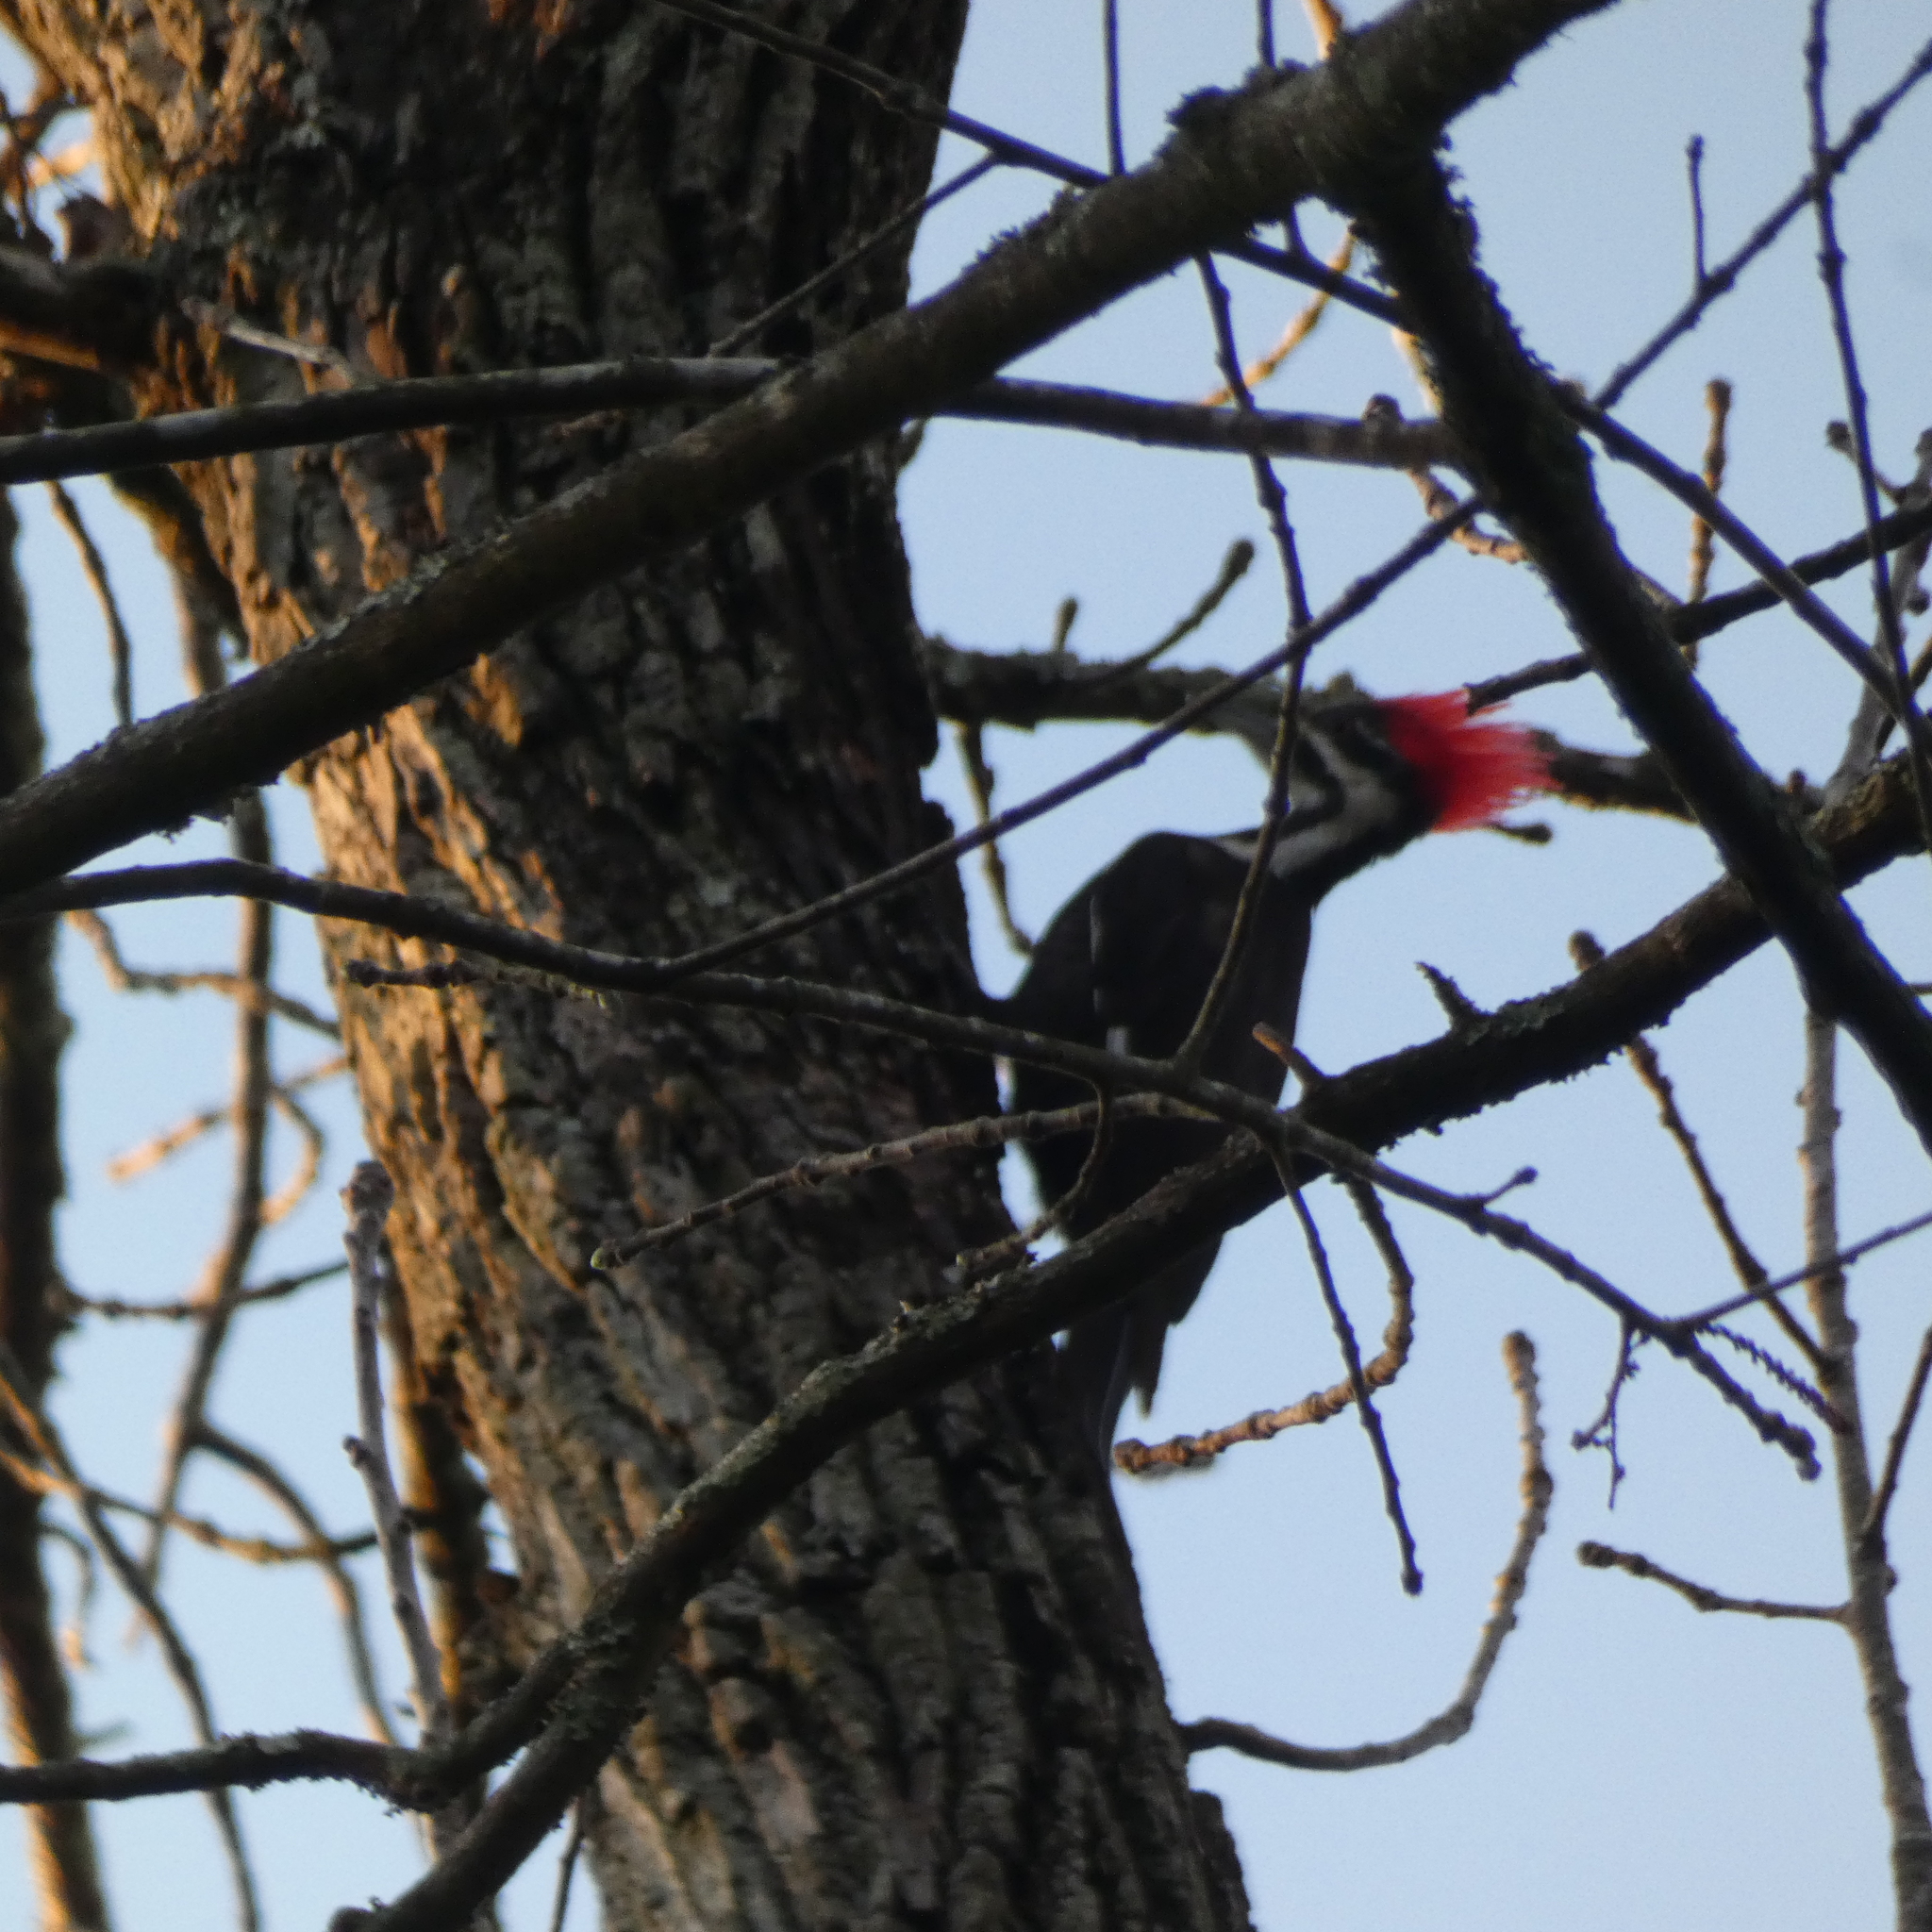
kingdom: Animalia
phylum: Chordata
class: Aves
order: Piciformes
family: Picidae
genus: Dryocopus
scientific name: Dryocopus pileatus
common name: Pileated woodpecker
